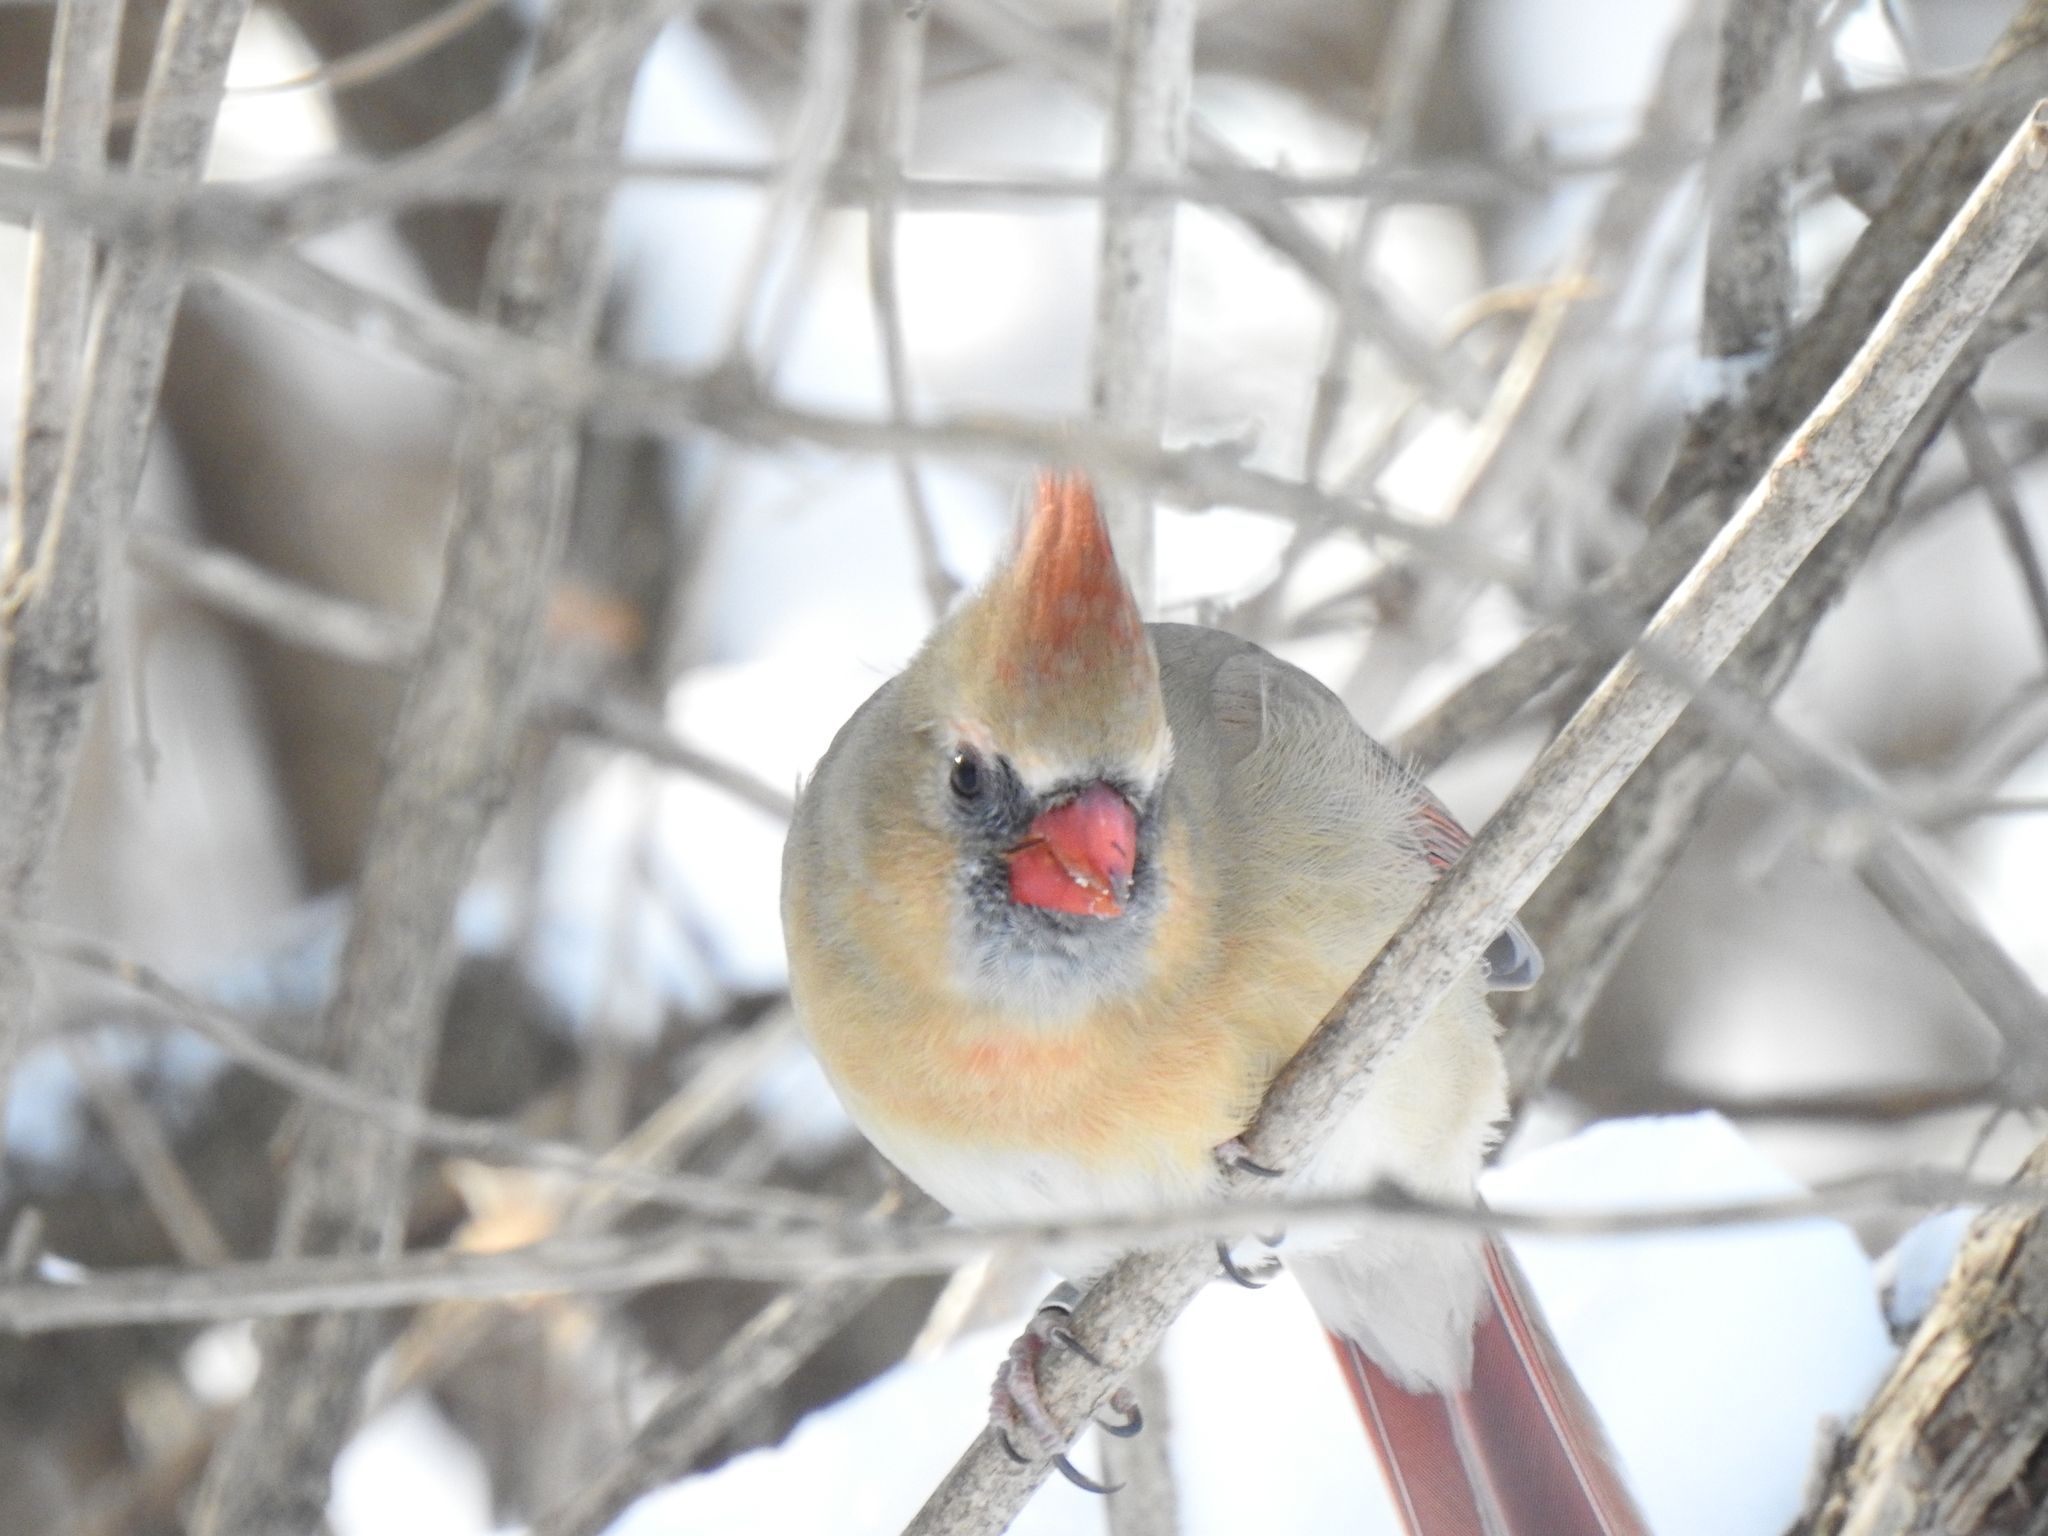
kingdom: Animalia
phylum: Chordata
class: Aves
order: Passeriformes
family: Cardinalidae
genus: Cardinalis
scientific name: Cardinalis cardinalis
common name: Northern cardinal
